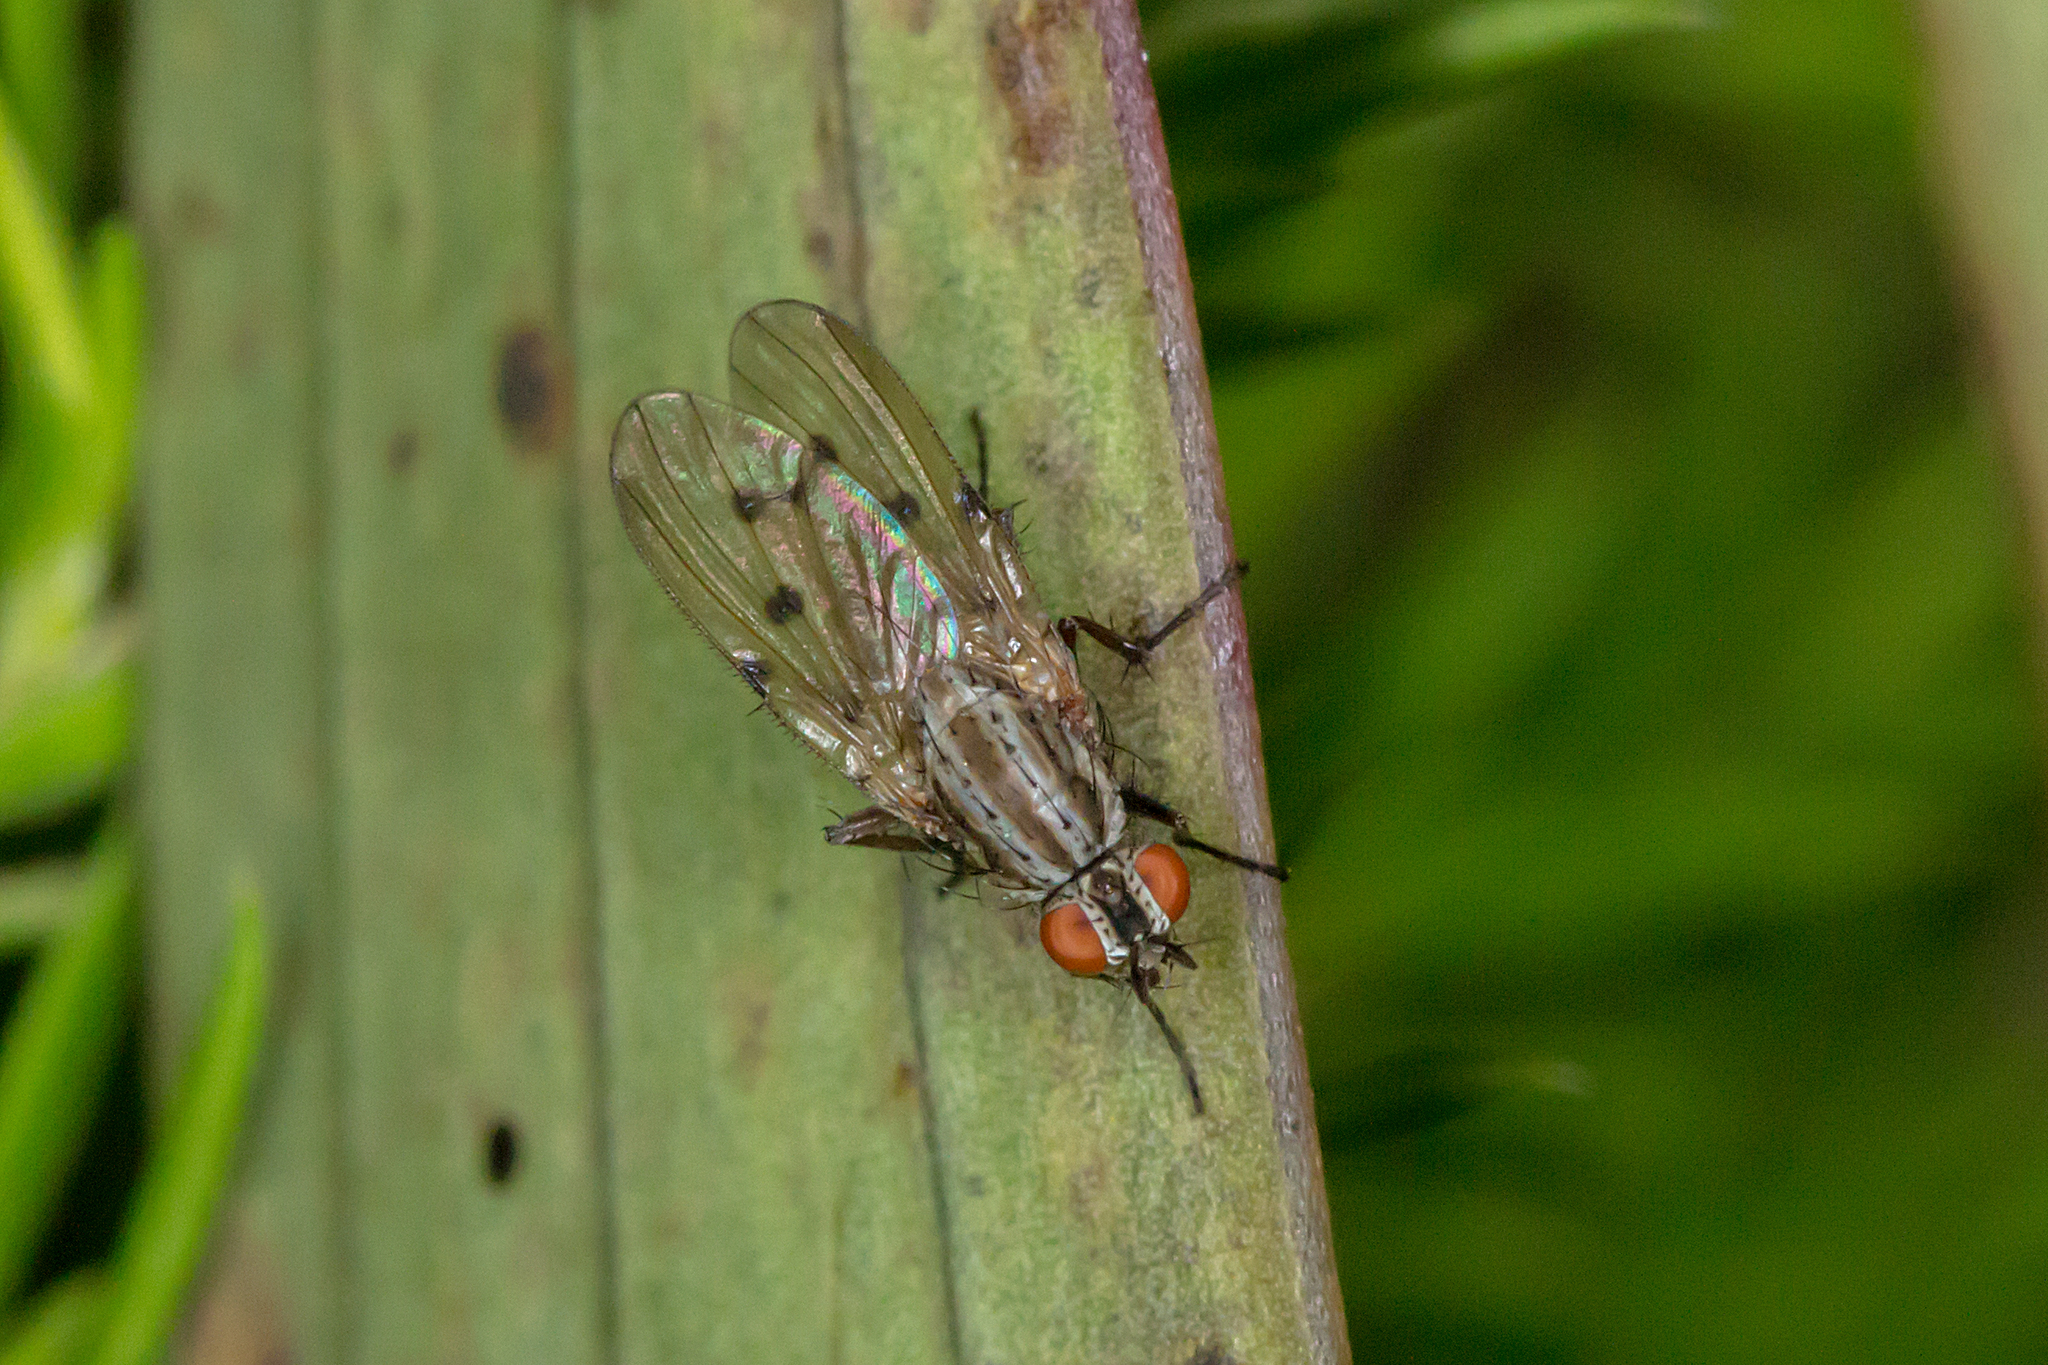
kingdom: Animalia
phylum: Arthropoda
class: Insecta
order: Diptera
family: Anthomyiidae
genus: Anthomyia
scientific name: Anthomyia punctipennis
